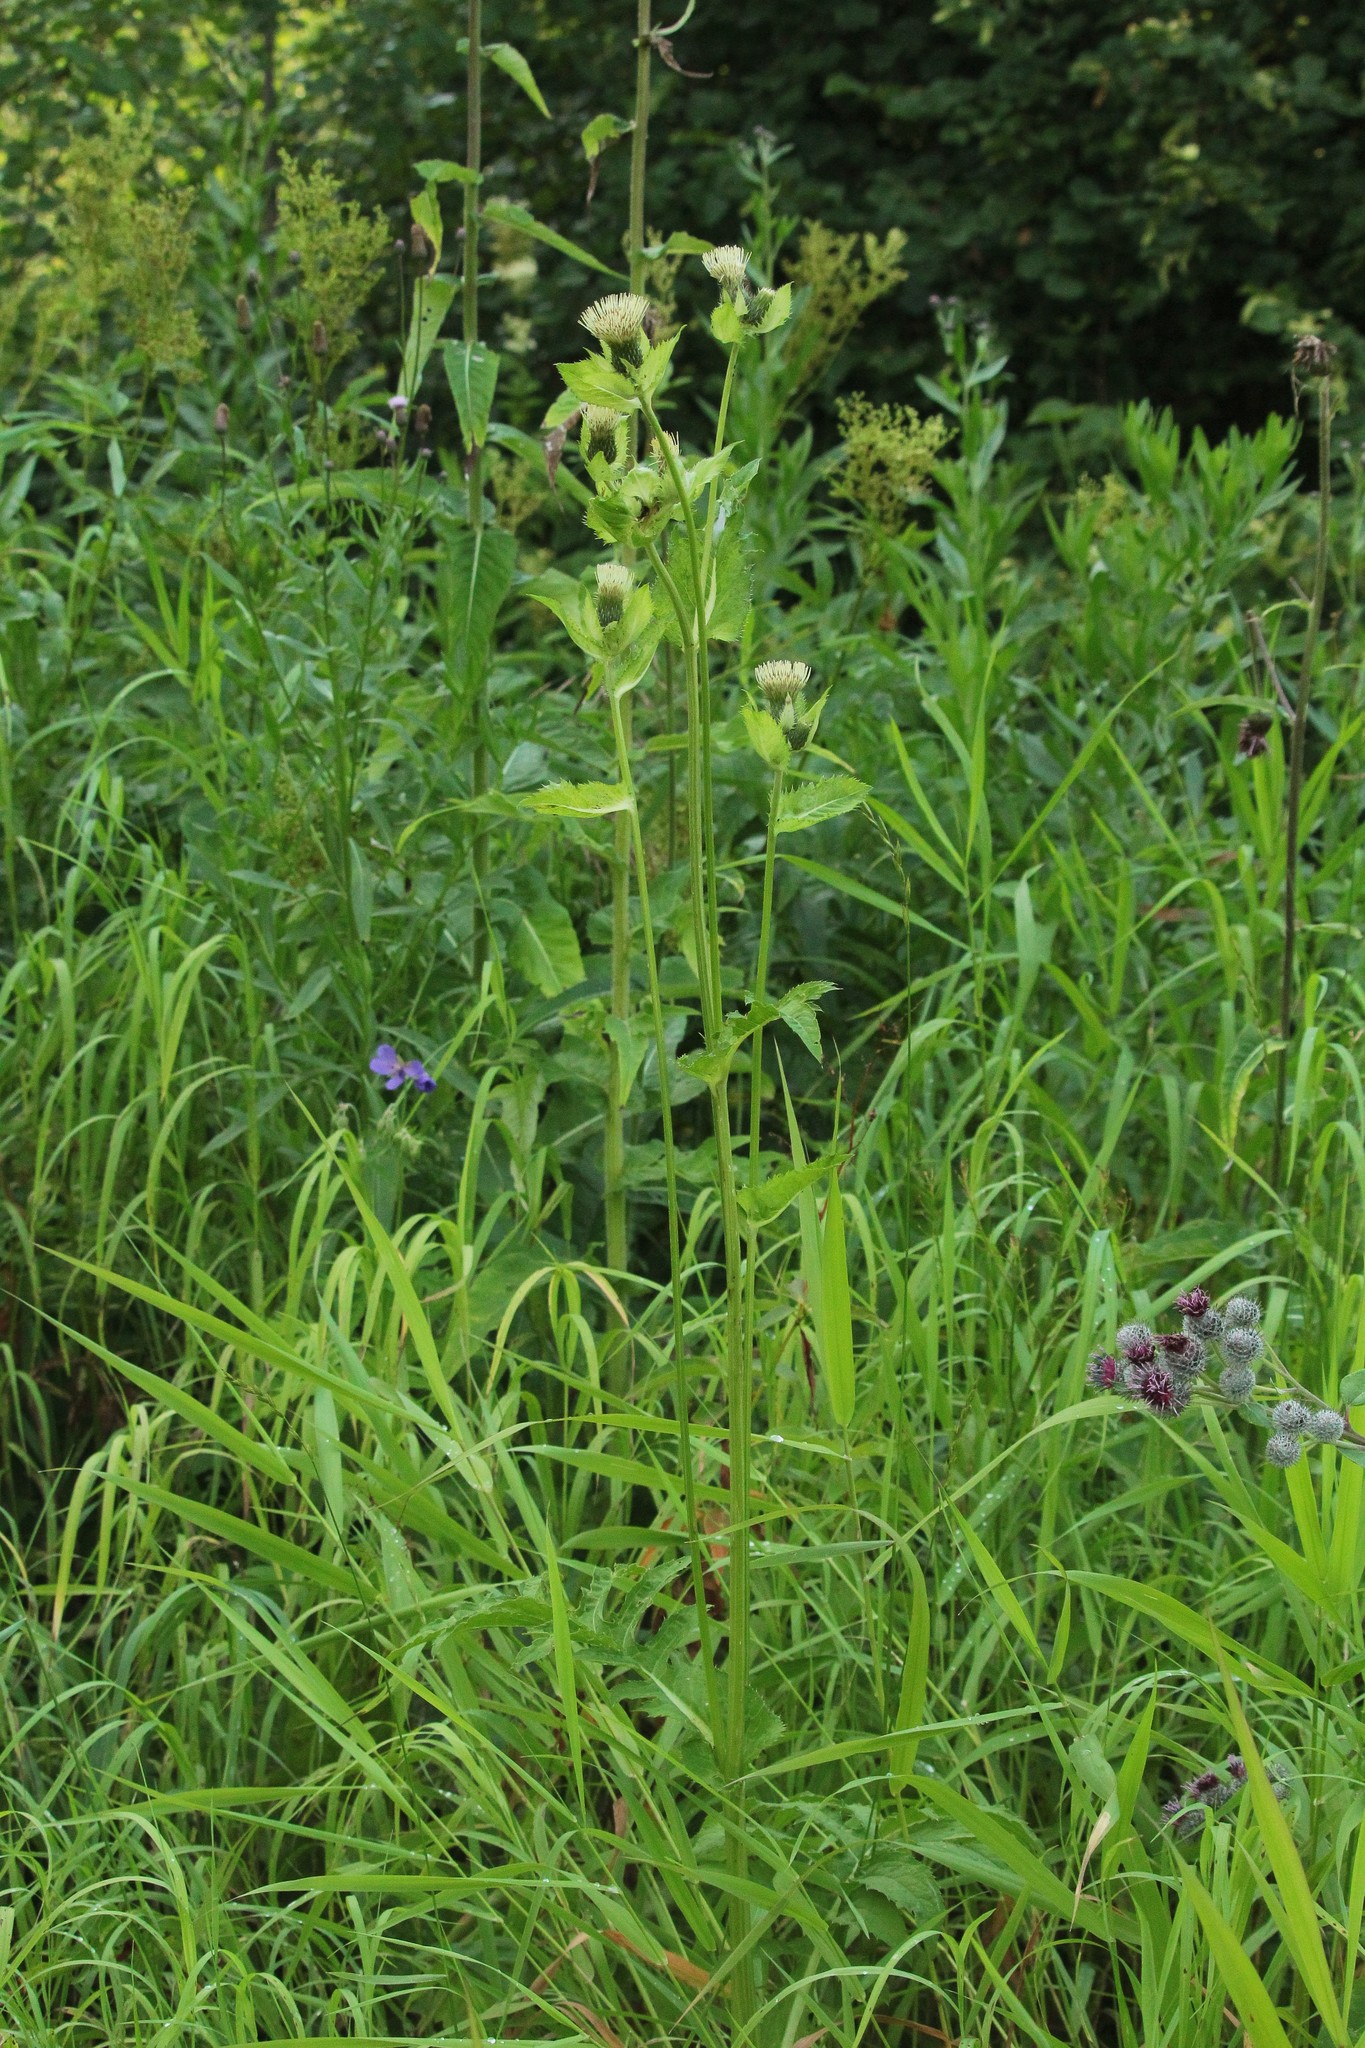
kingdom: Plantae
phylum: Tracheophyta
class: Magnoliopsida
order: Asterales
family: Asteraceae
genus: Cirsium
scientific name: Cirsium oleraceum
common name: Cabbage thistle
